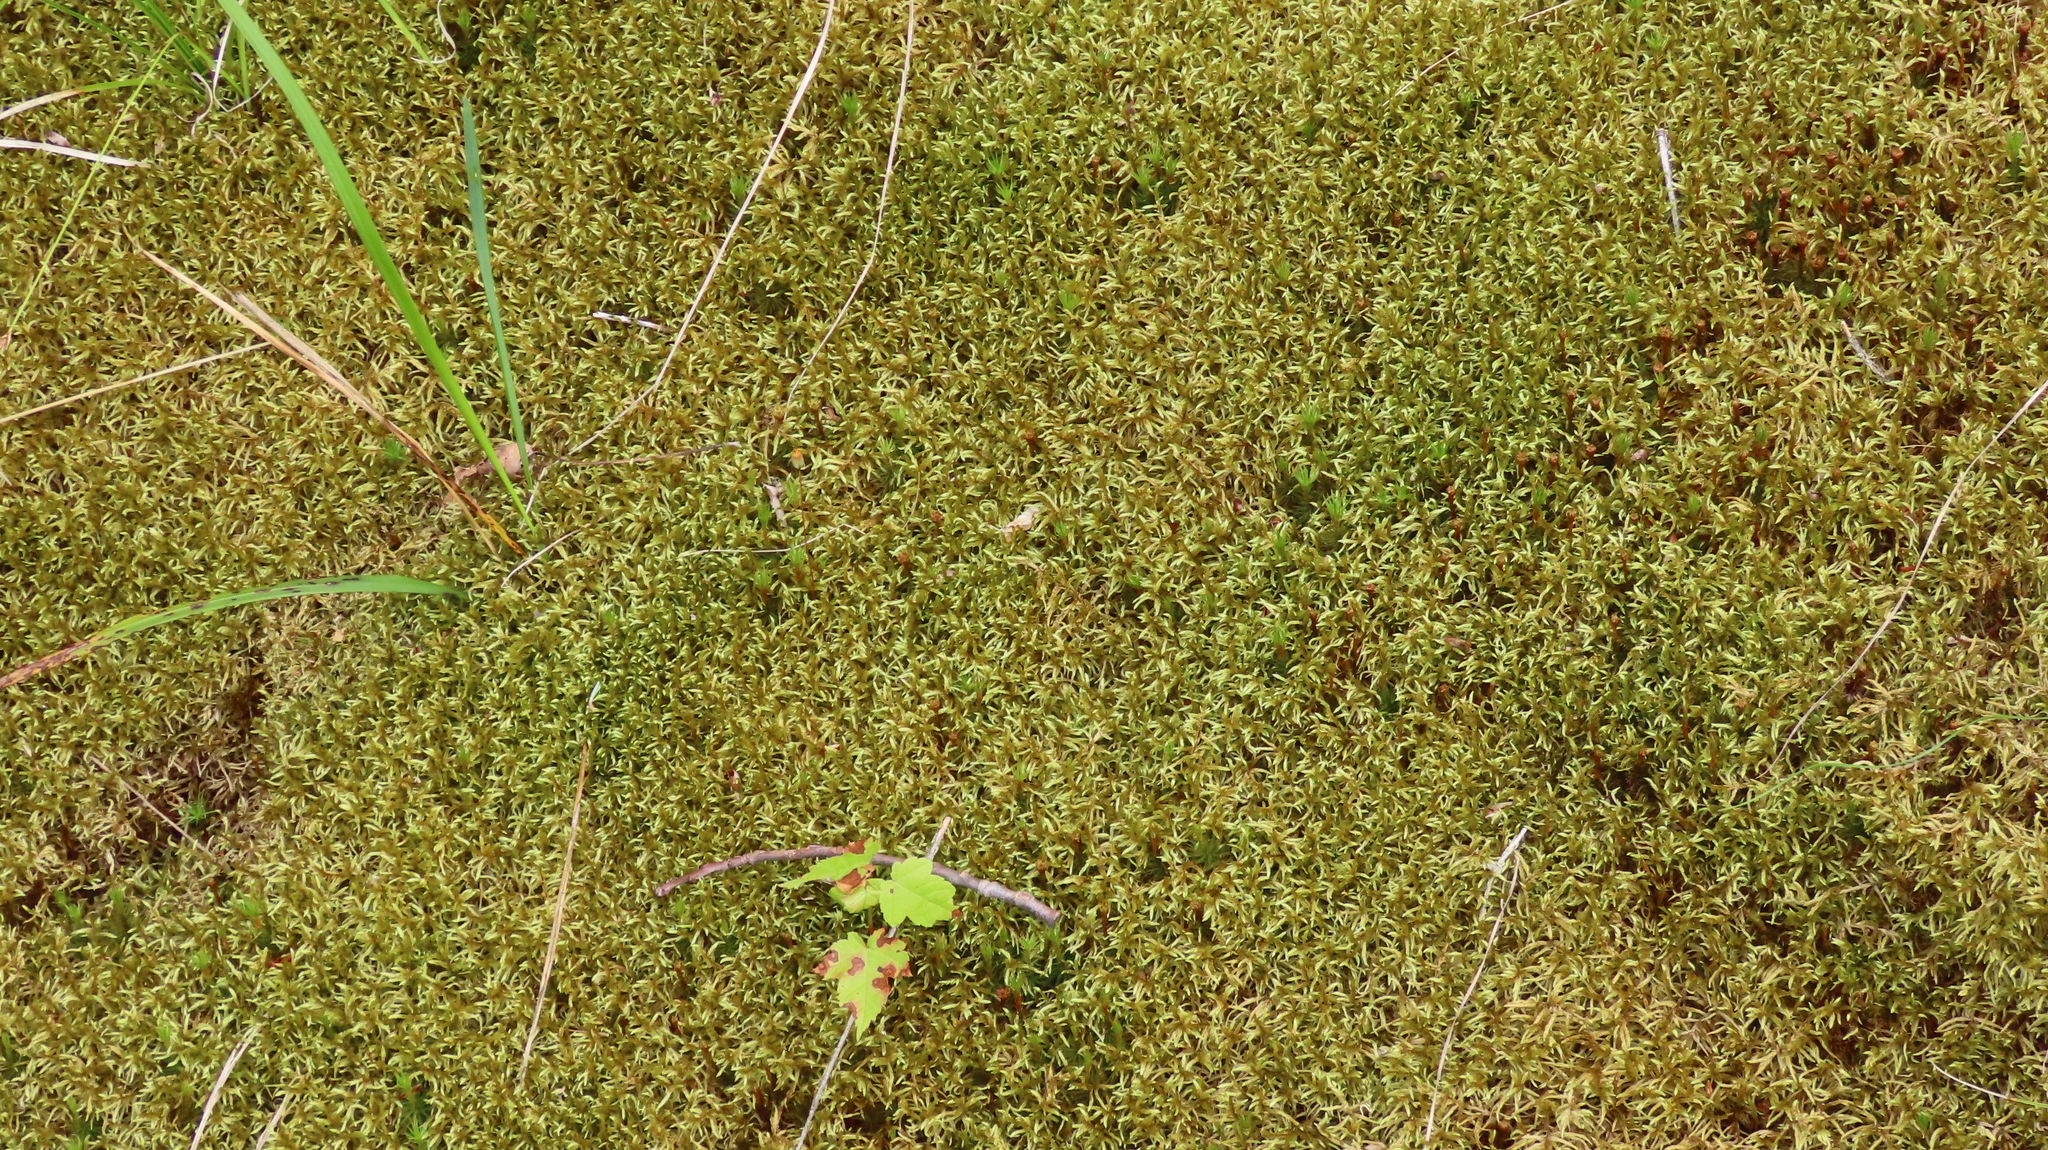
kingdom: Plantae
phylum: Bryophyta
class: Bryopsida
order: Hypnales
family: Hylocomiaceae
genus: Pleurozium
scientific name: Pleurozium schreberi
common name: Red-stemmed feather moss
